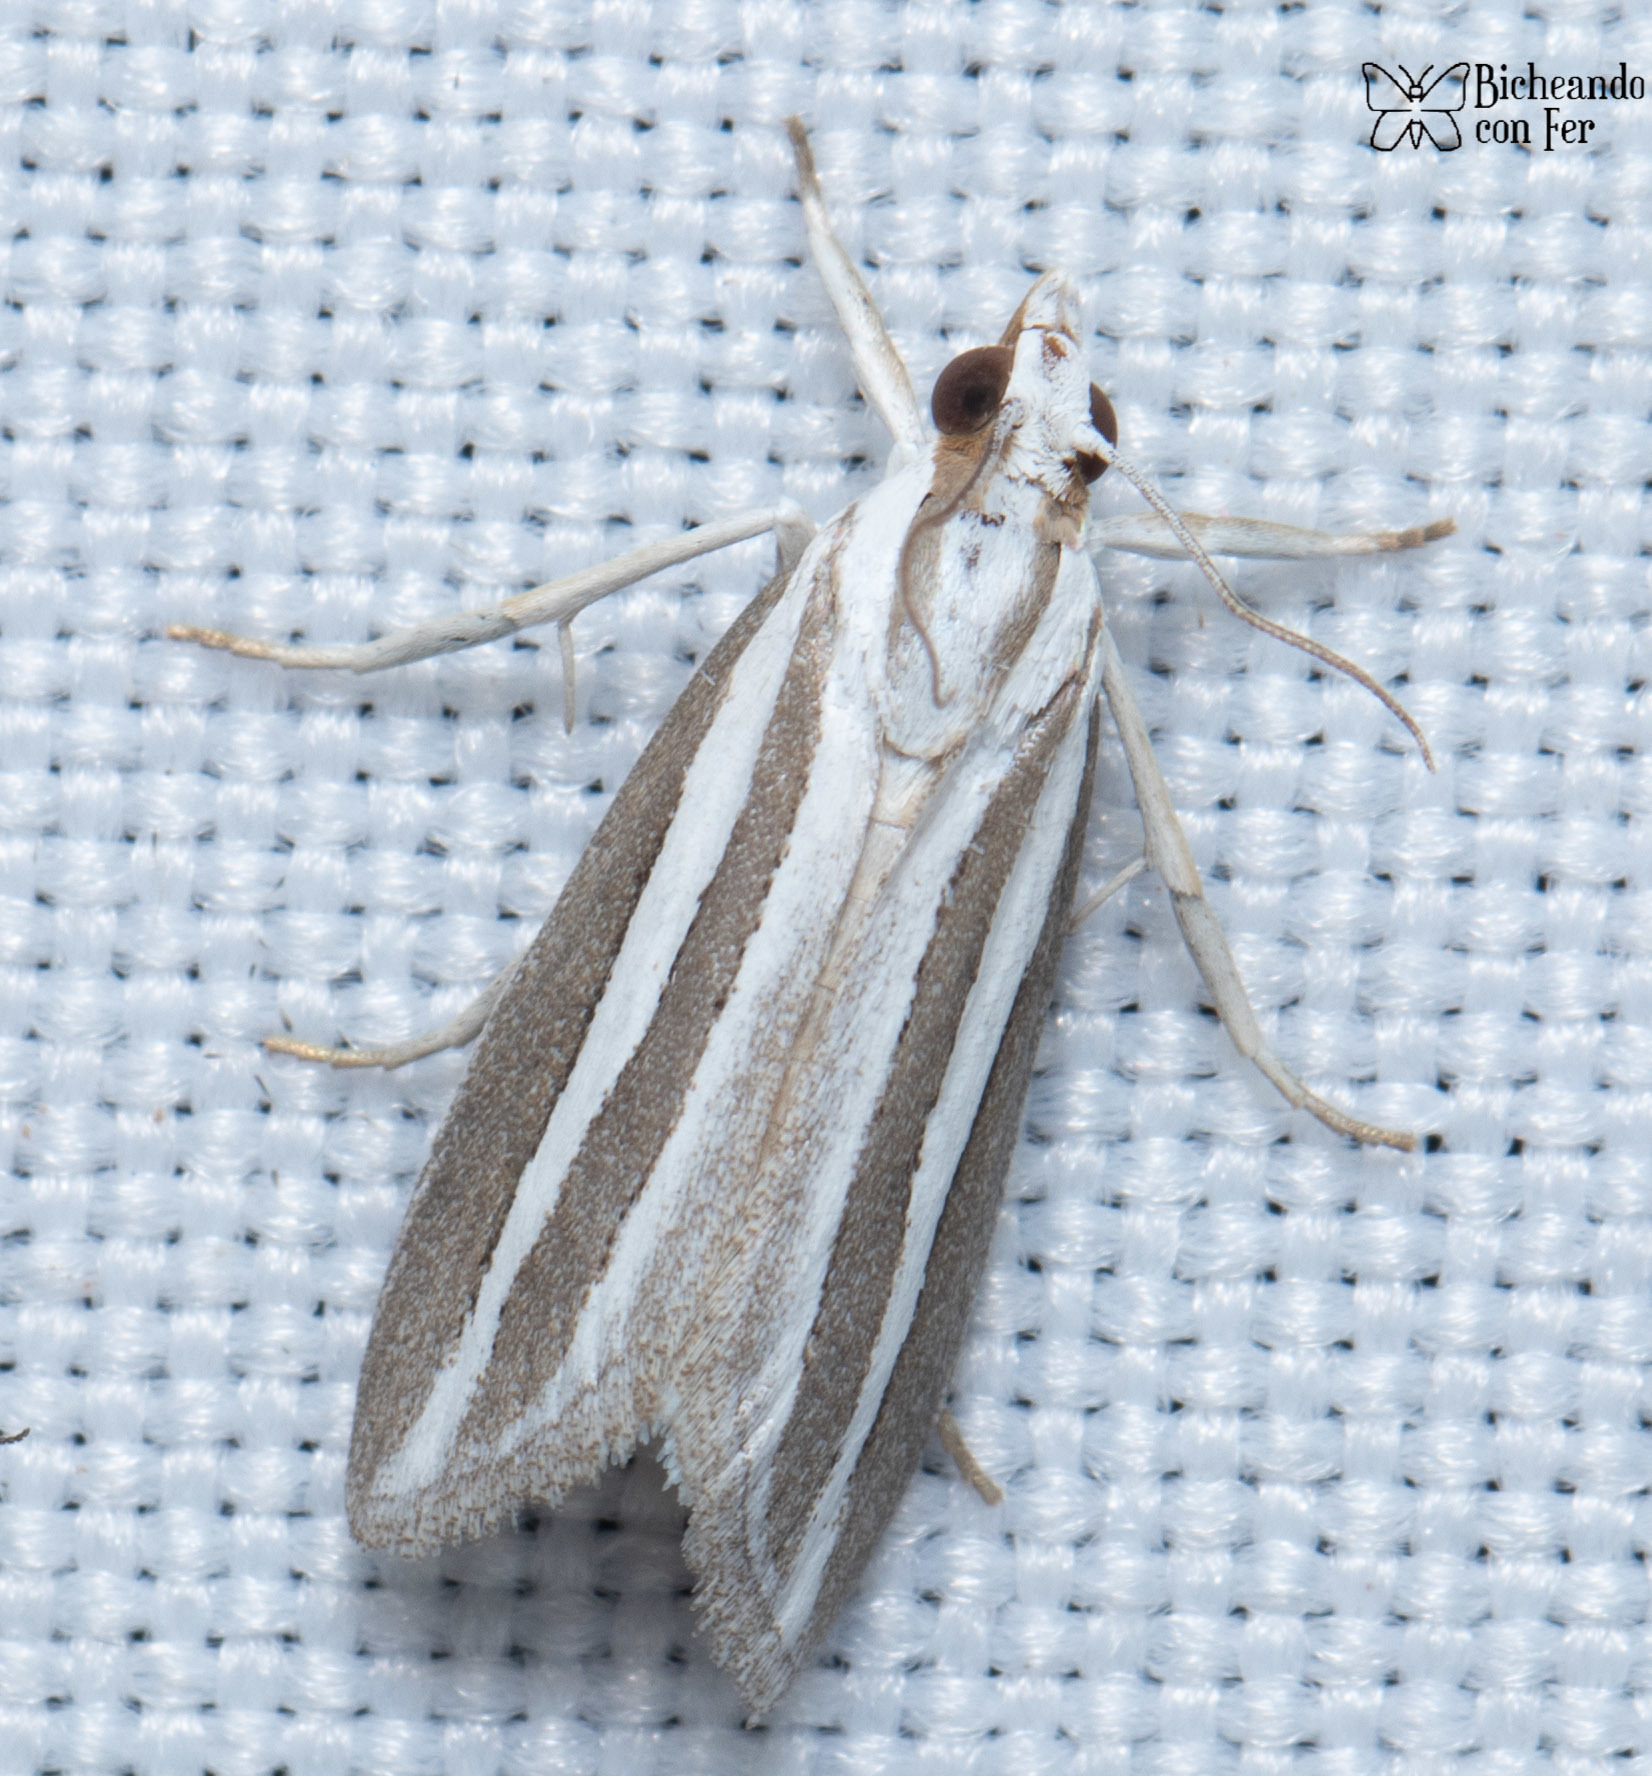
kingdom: Animalia
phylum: Arthropoda
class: Insecta
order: Lepidoptera
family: Crambidae
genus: Upiga
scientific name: Upiga virescens
